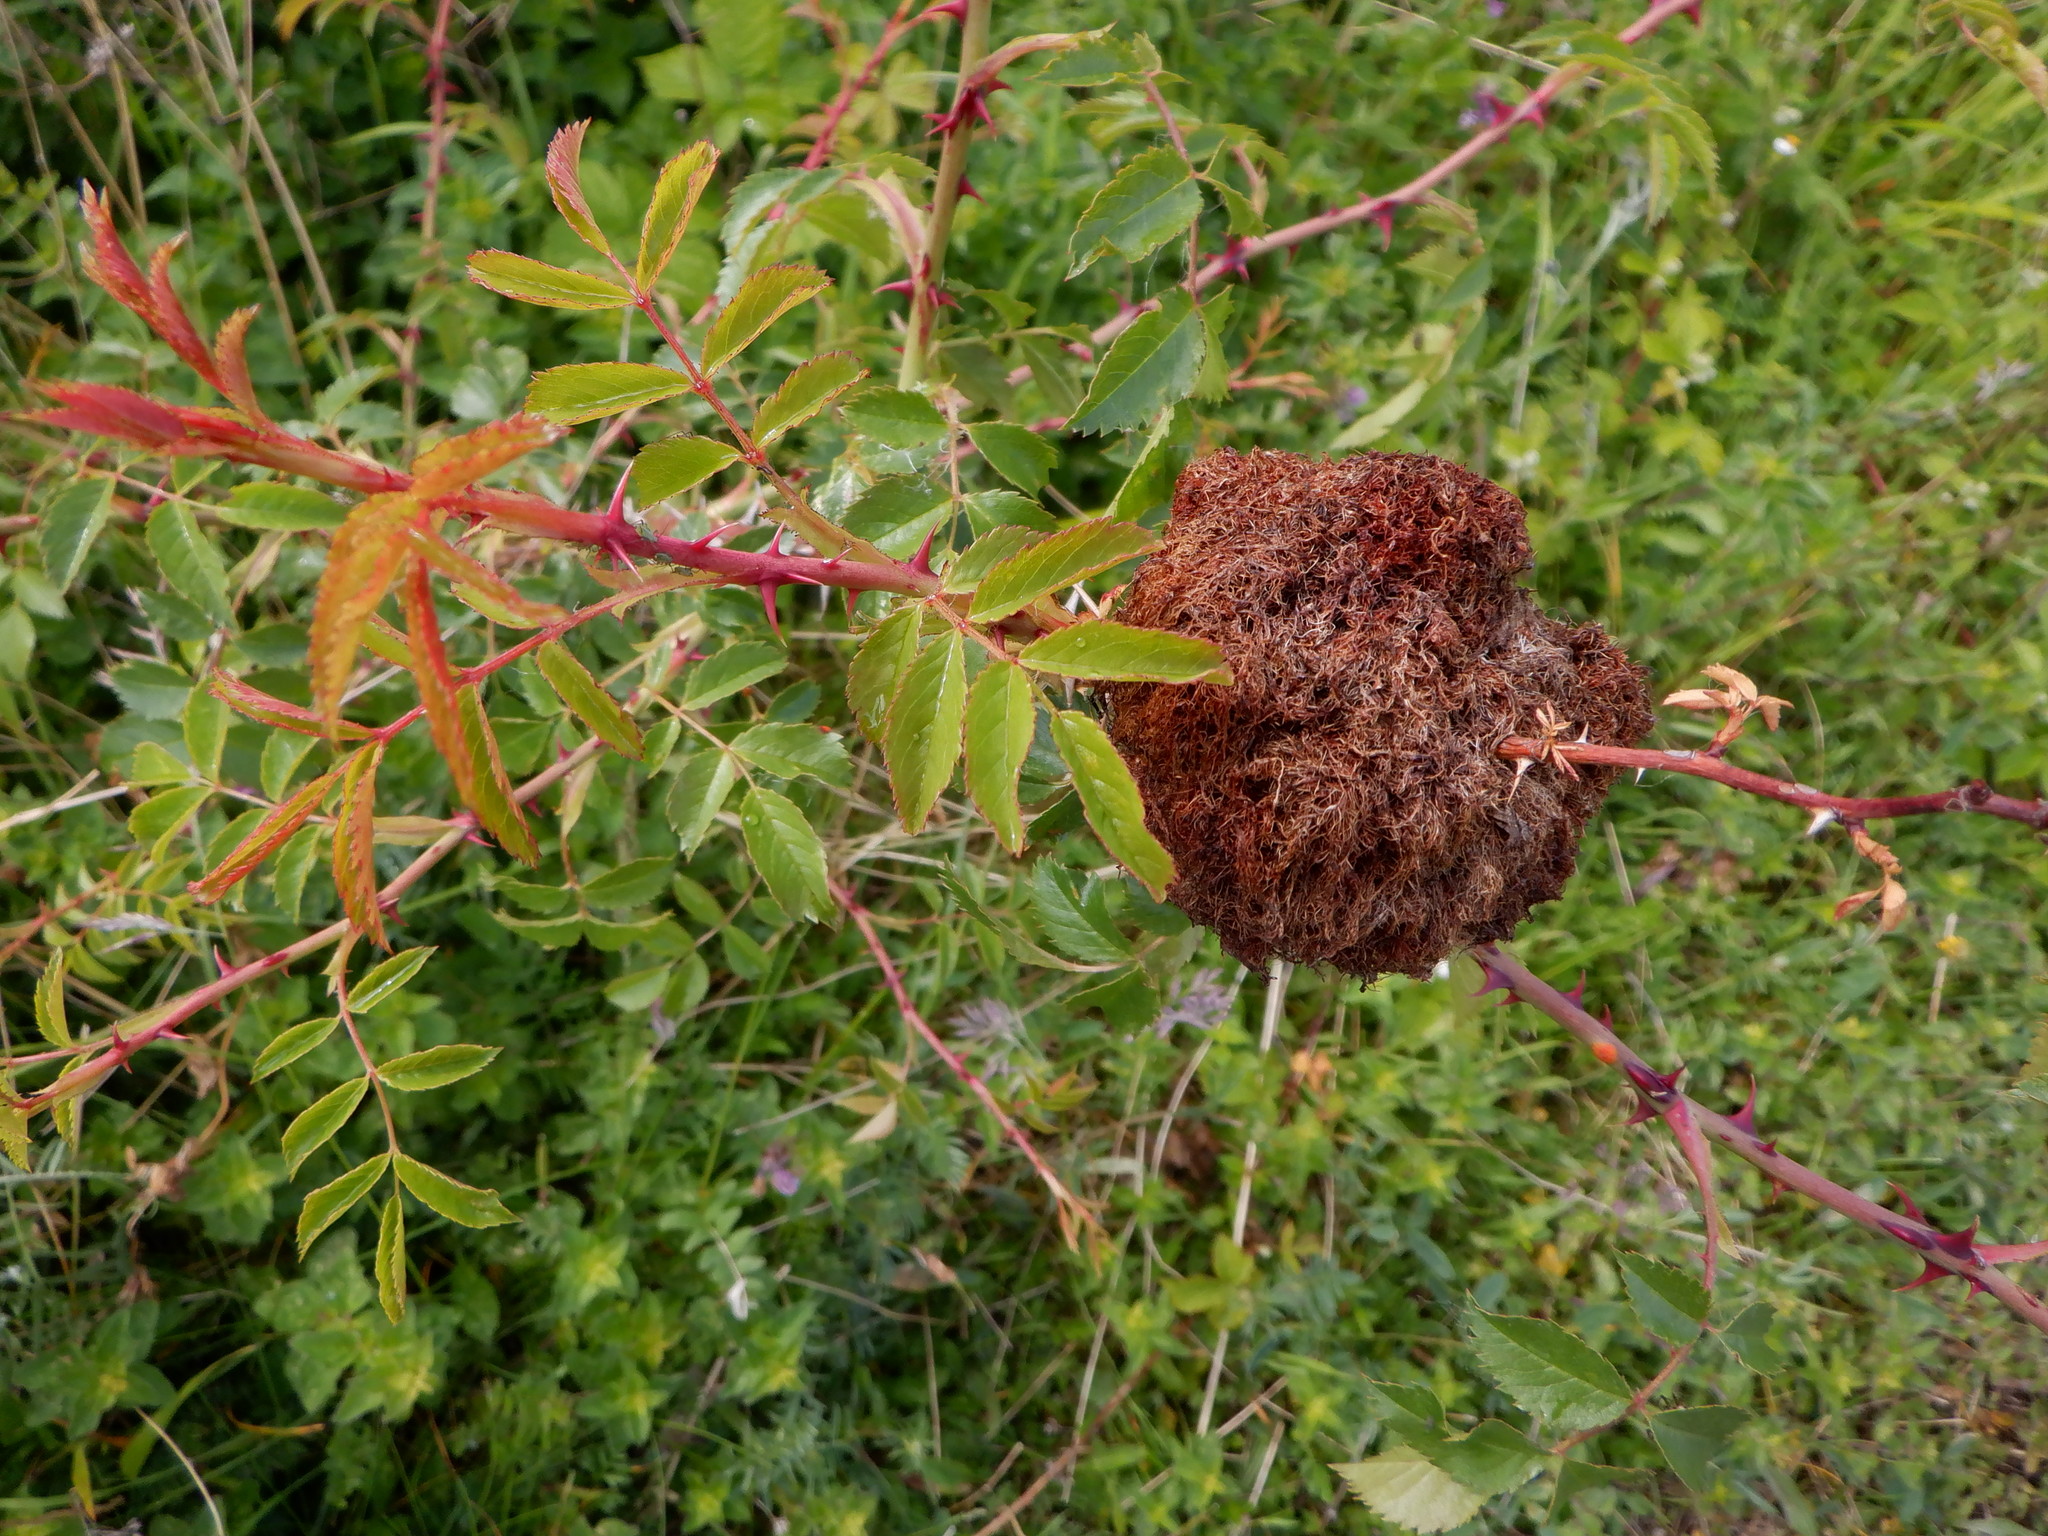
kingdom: Animalia
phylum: Arthropoda
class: Insecta
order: Hymenoptera
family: Cynipidae
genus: Diplolepis
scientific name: Diplolepis rosae
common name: Bedeguar gall
